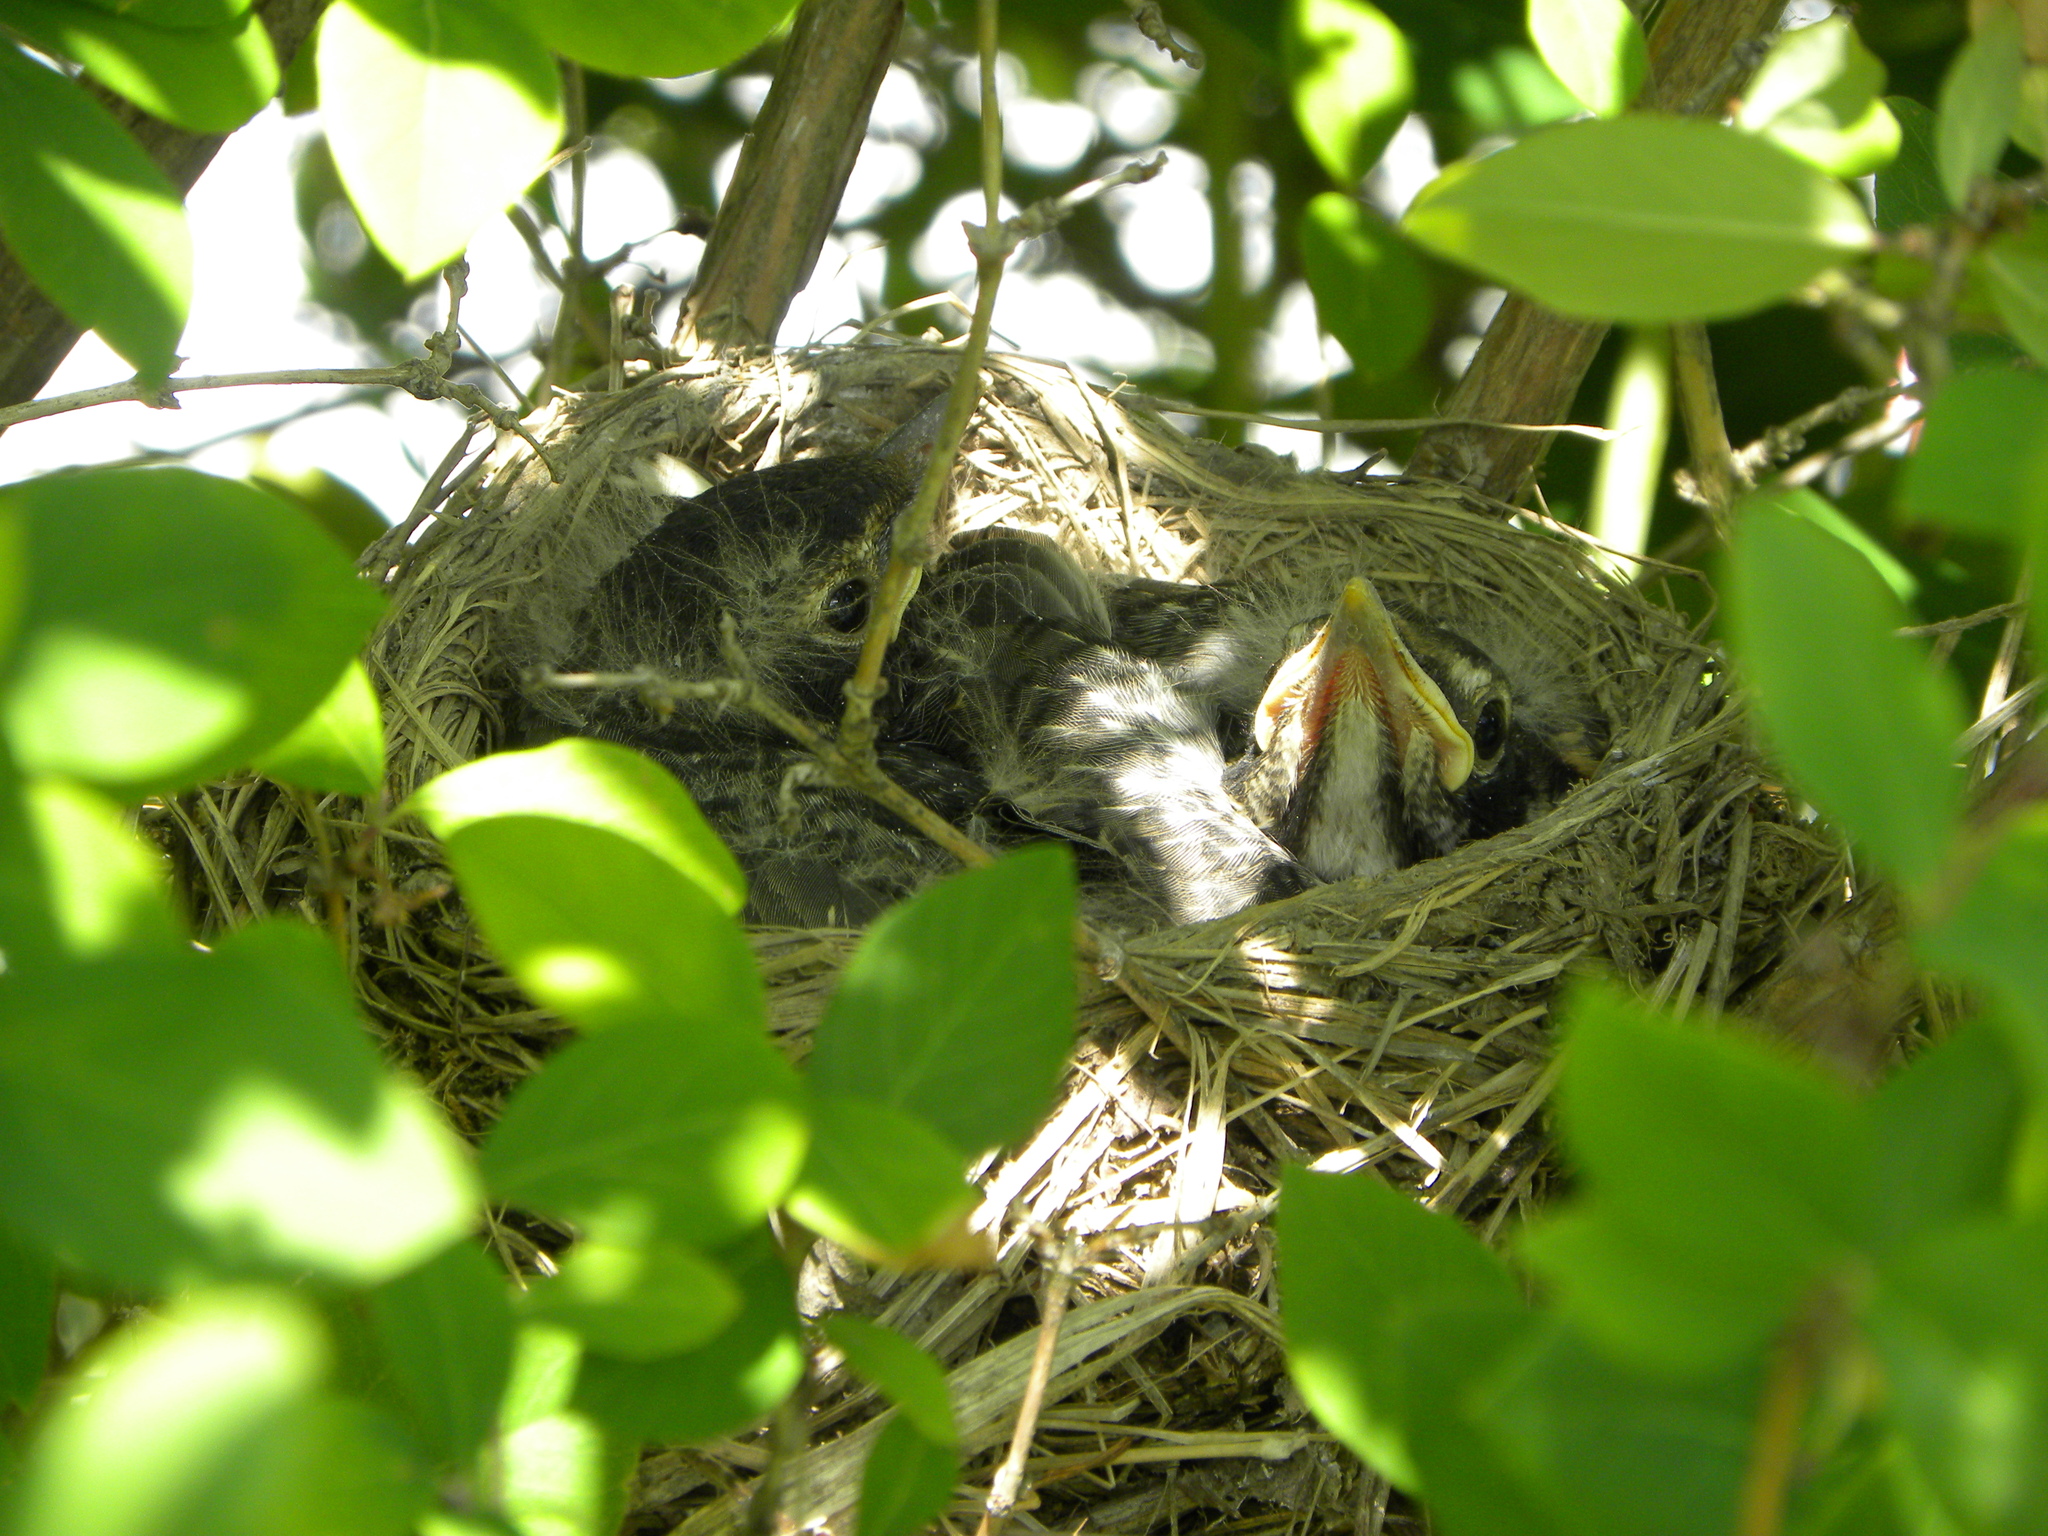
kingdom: Animalia
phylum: Chordata
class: Aves
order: Passeriformes
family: Turdidae
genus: Turdus
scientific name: Turdus migratorius
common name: American robin
